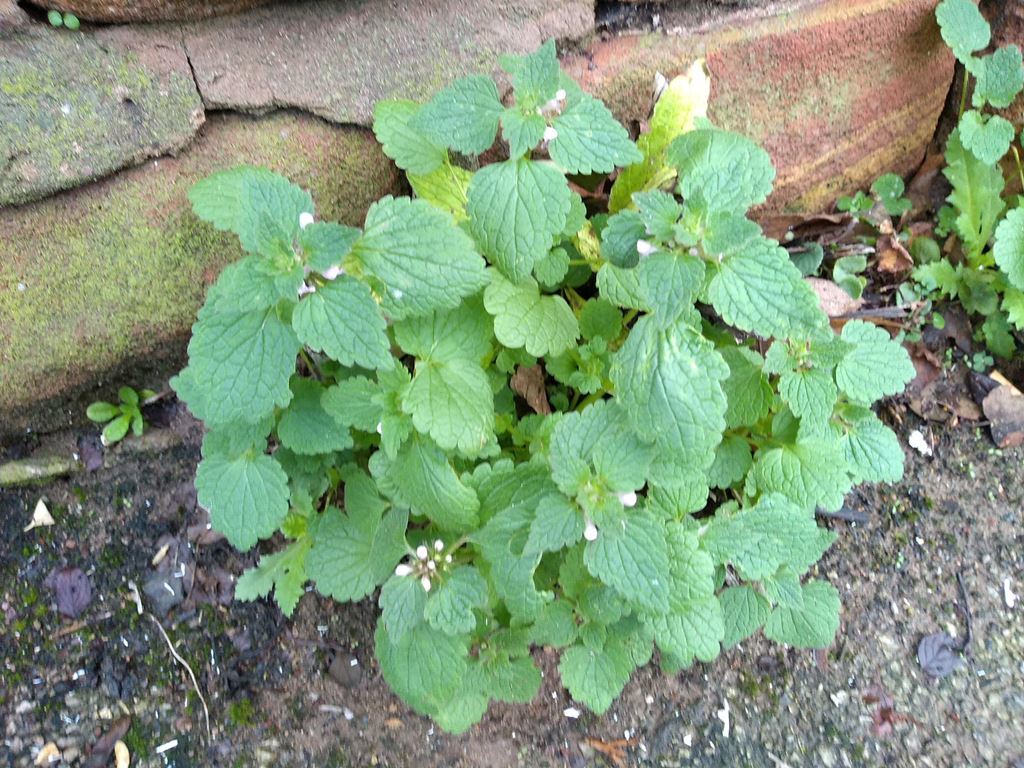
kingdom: Plantae
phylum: Tracheophyta
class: Magnoliopsida
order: Lamiales
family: Lamiaceae
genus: Lamium
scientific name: Lamium purpureum
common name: Red dead-nettle
